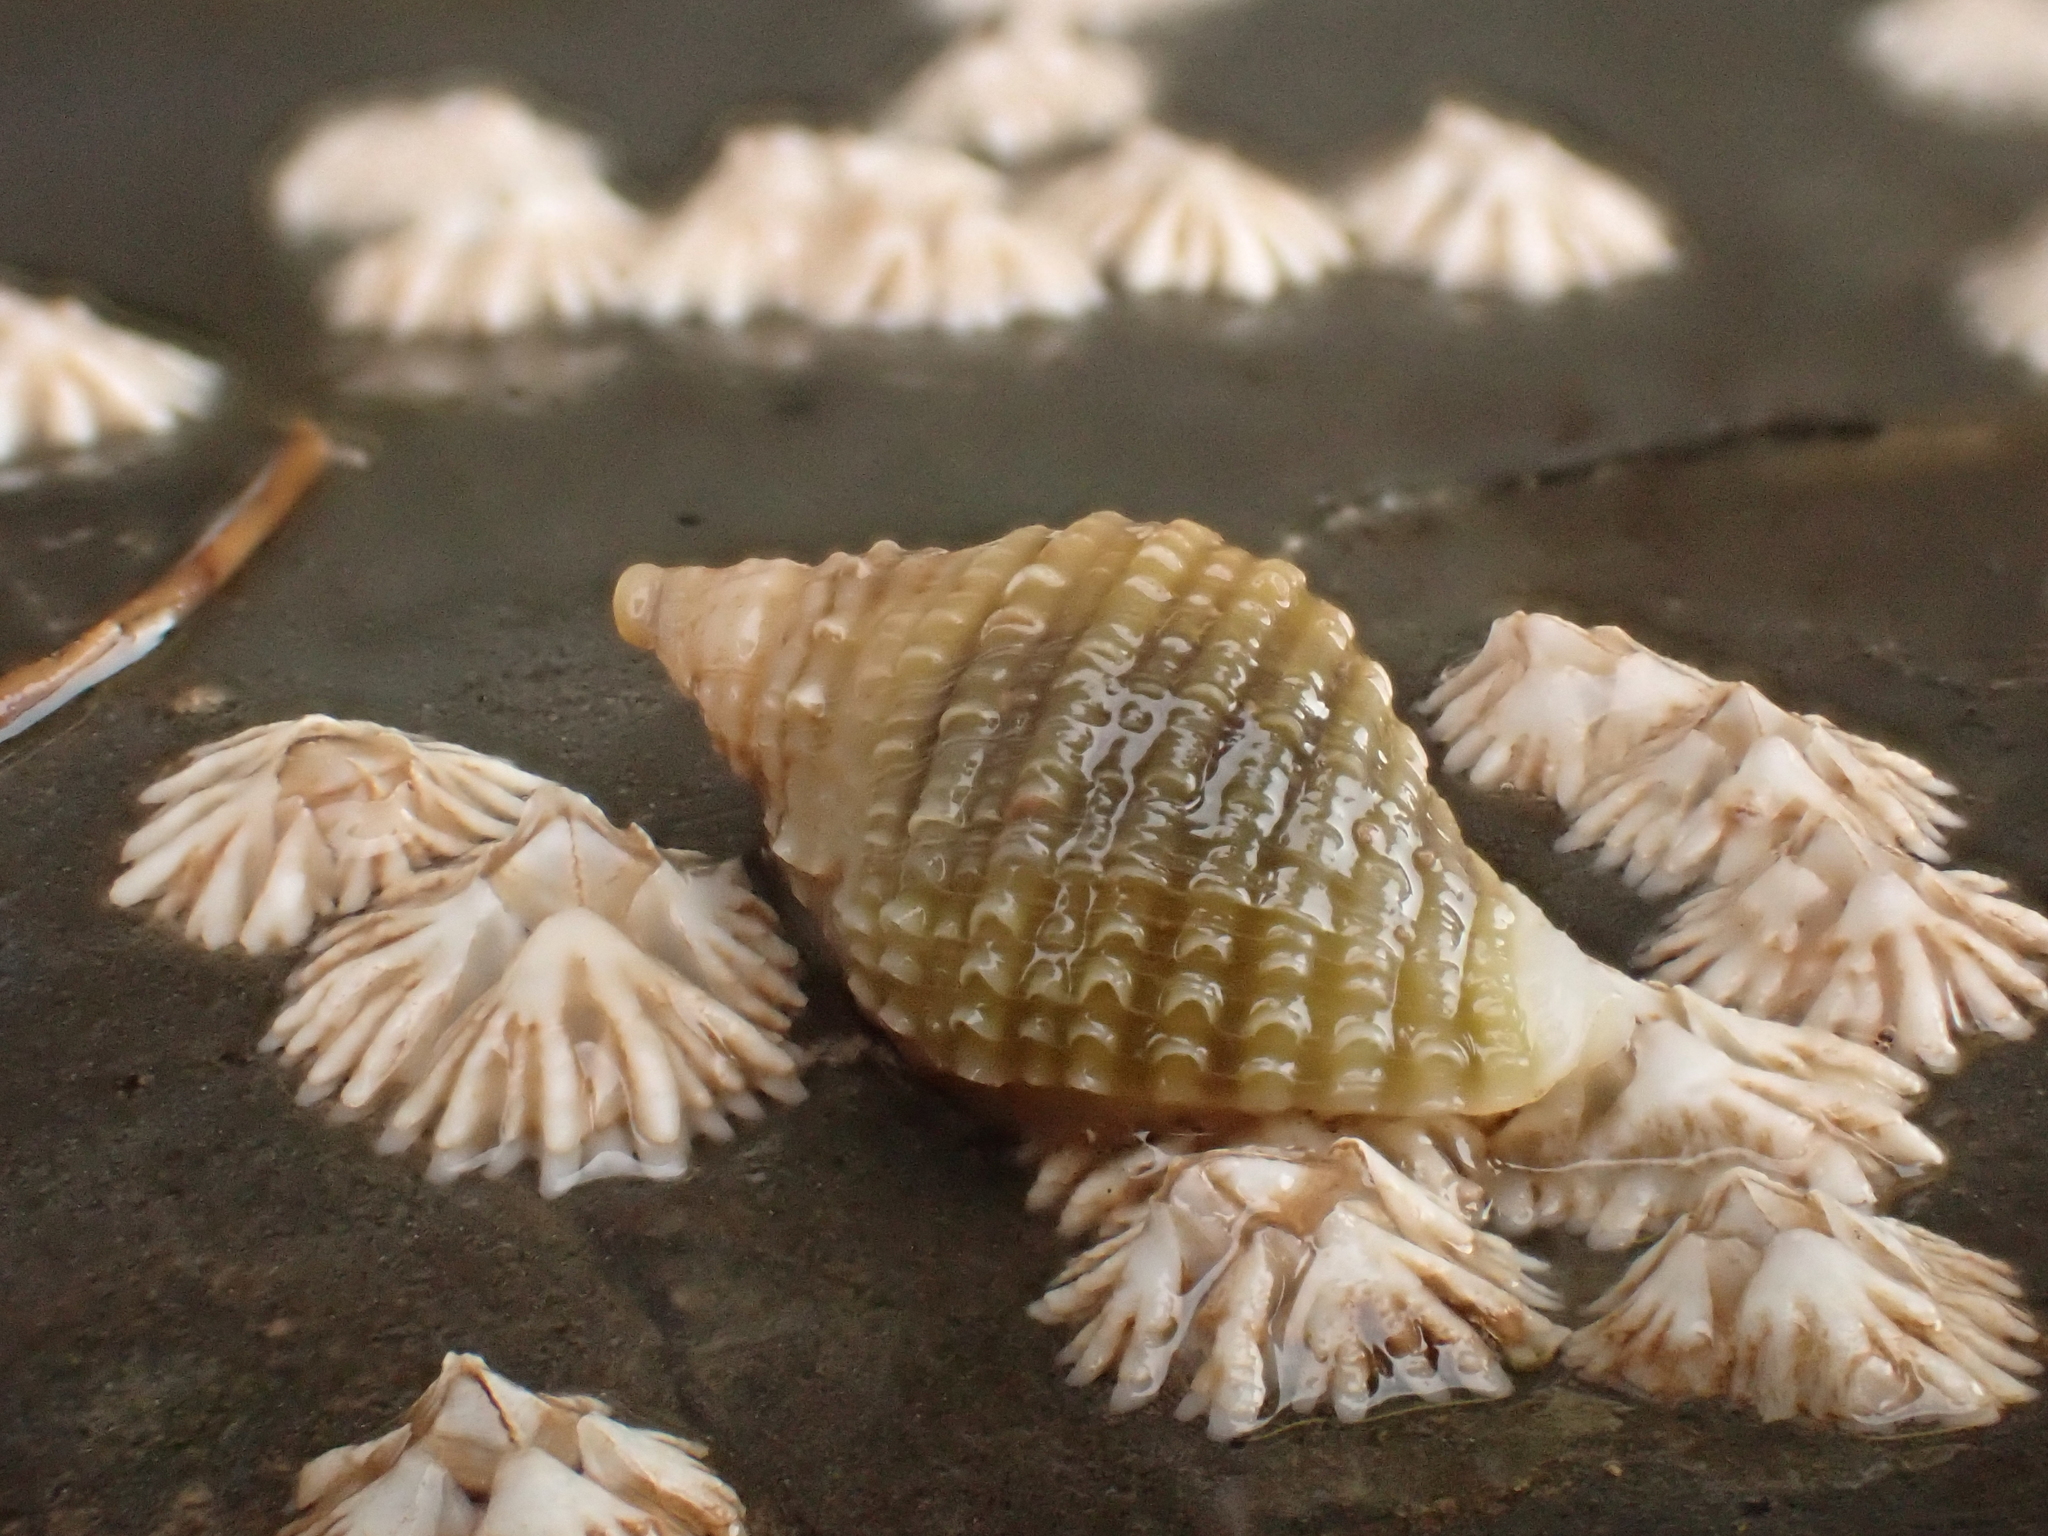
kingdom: Animalia
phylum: Mollusca
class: Gastropoda
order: Neogastropoda
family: Muricidae
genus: Nucella
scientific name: Nucella lapillus
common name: Dog whelk
